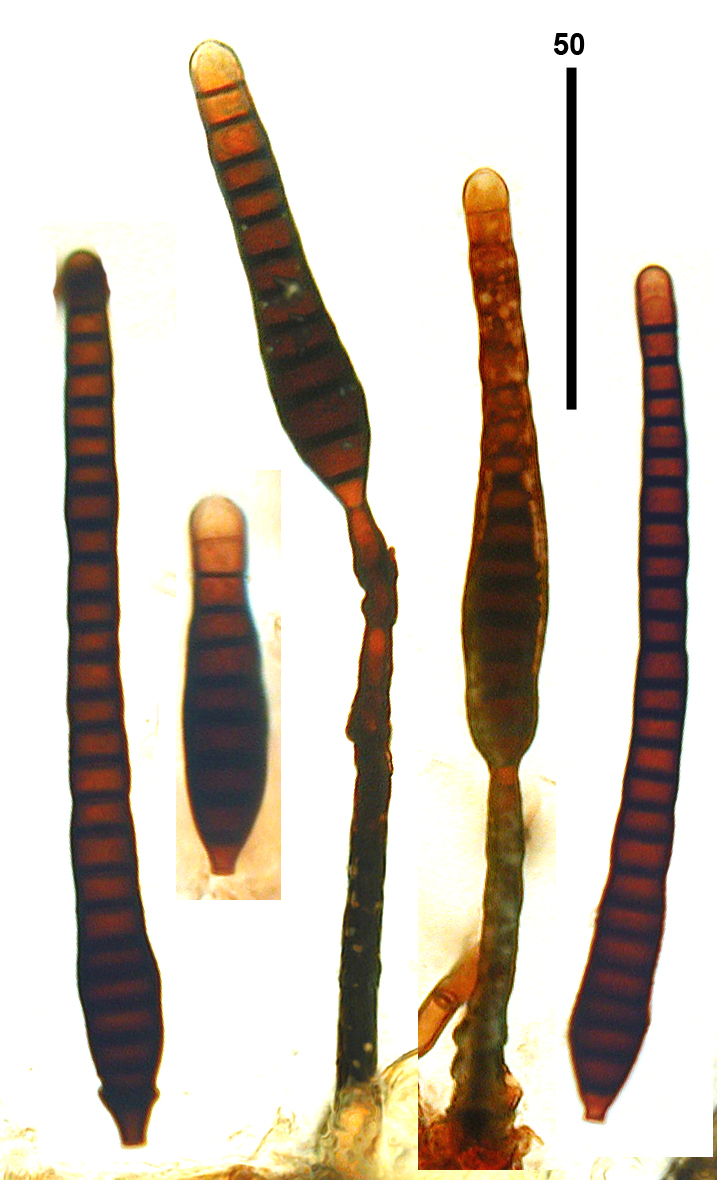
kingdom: Fungi
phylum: Ascomycota
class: Dothideomycetes
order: Pleosporales
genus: Sporidesmium
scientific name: Sporidesmium pedunculatum
